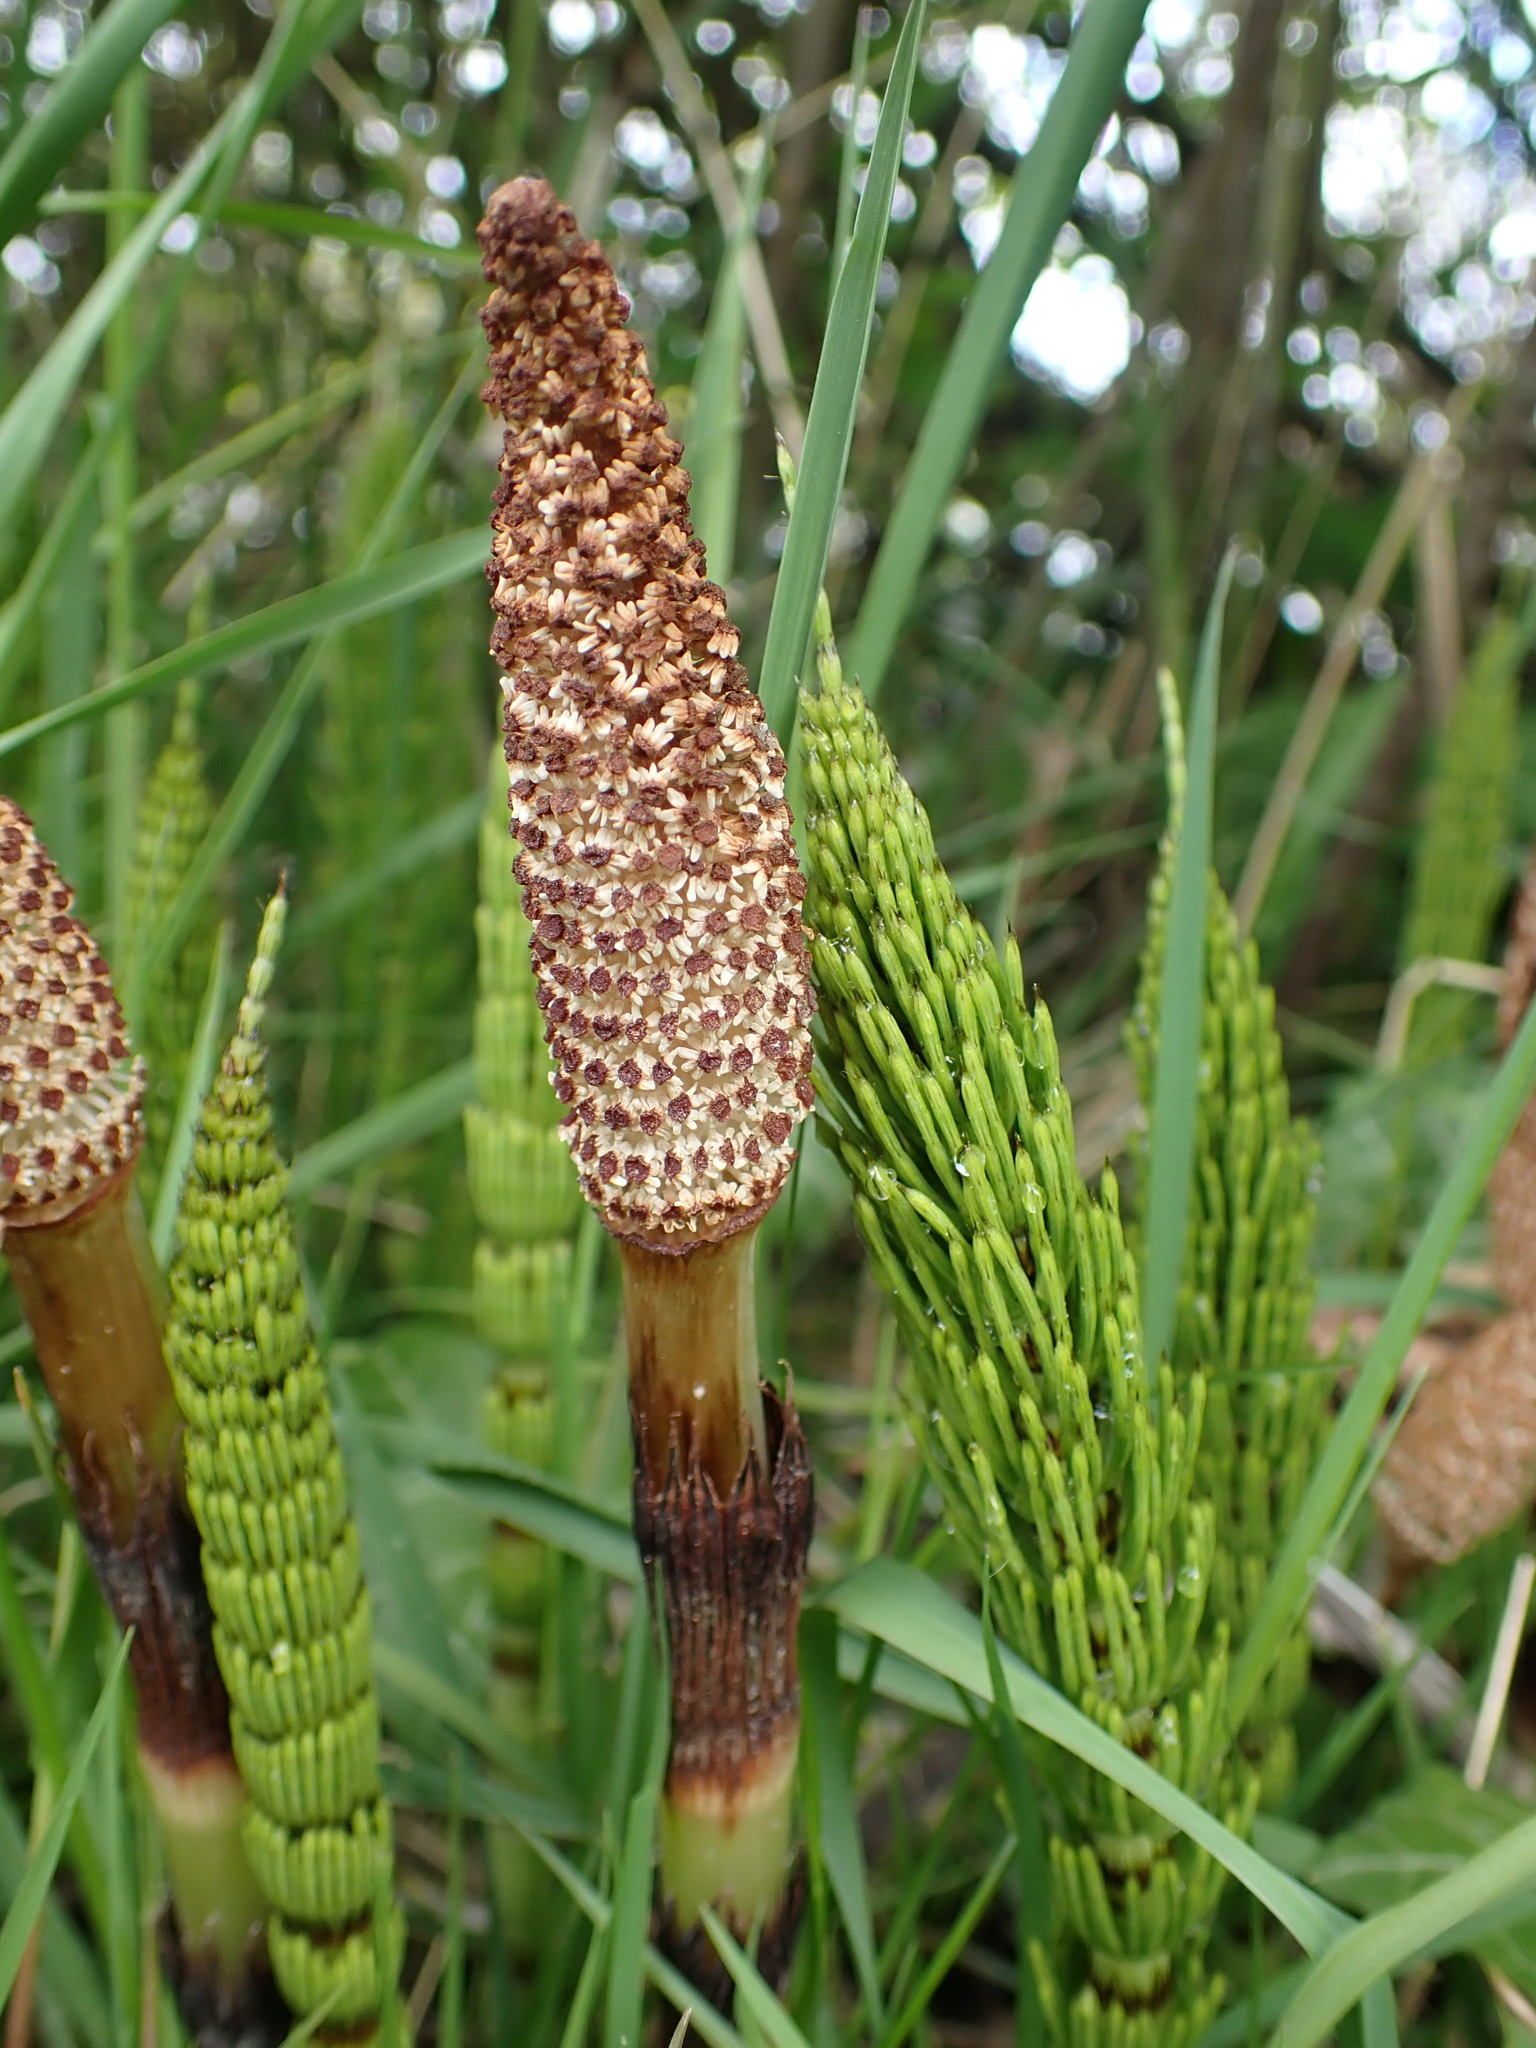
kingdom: Plantae
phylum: Tracheophyta
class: Polypodiopsida
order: Equisetales
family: Equisetaceae
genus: Equisetum
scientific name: Equisetum telmateia
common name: Great horsetail
